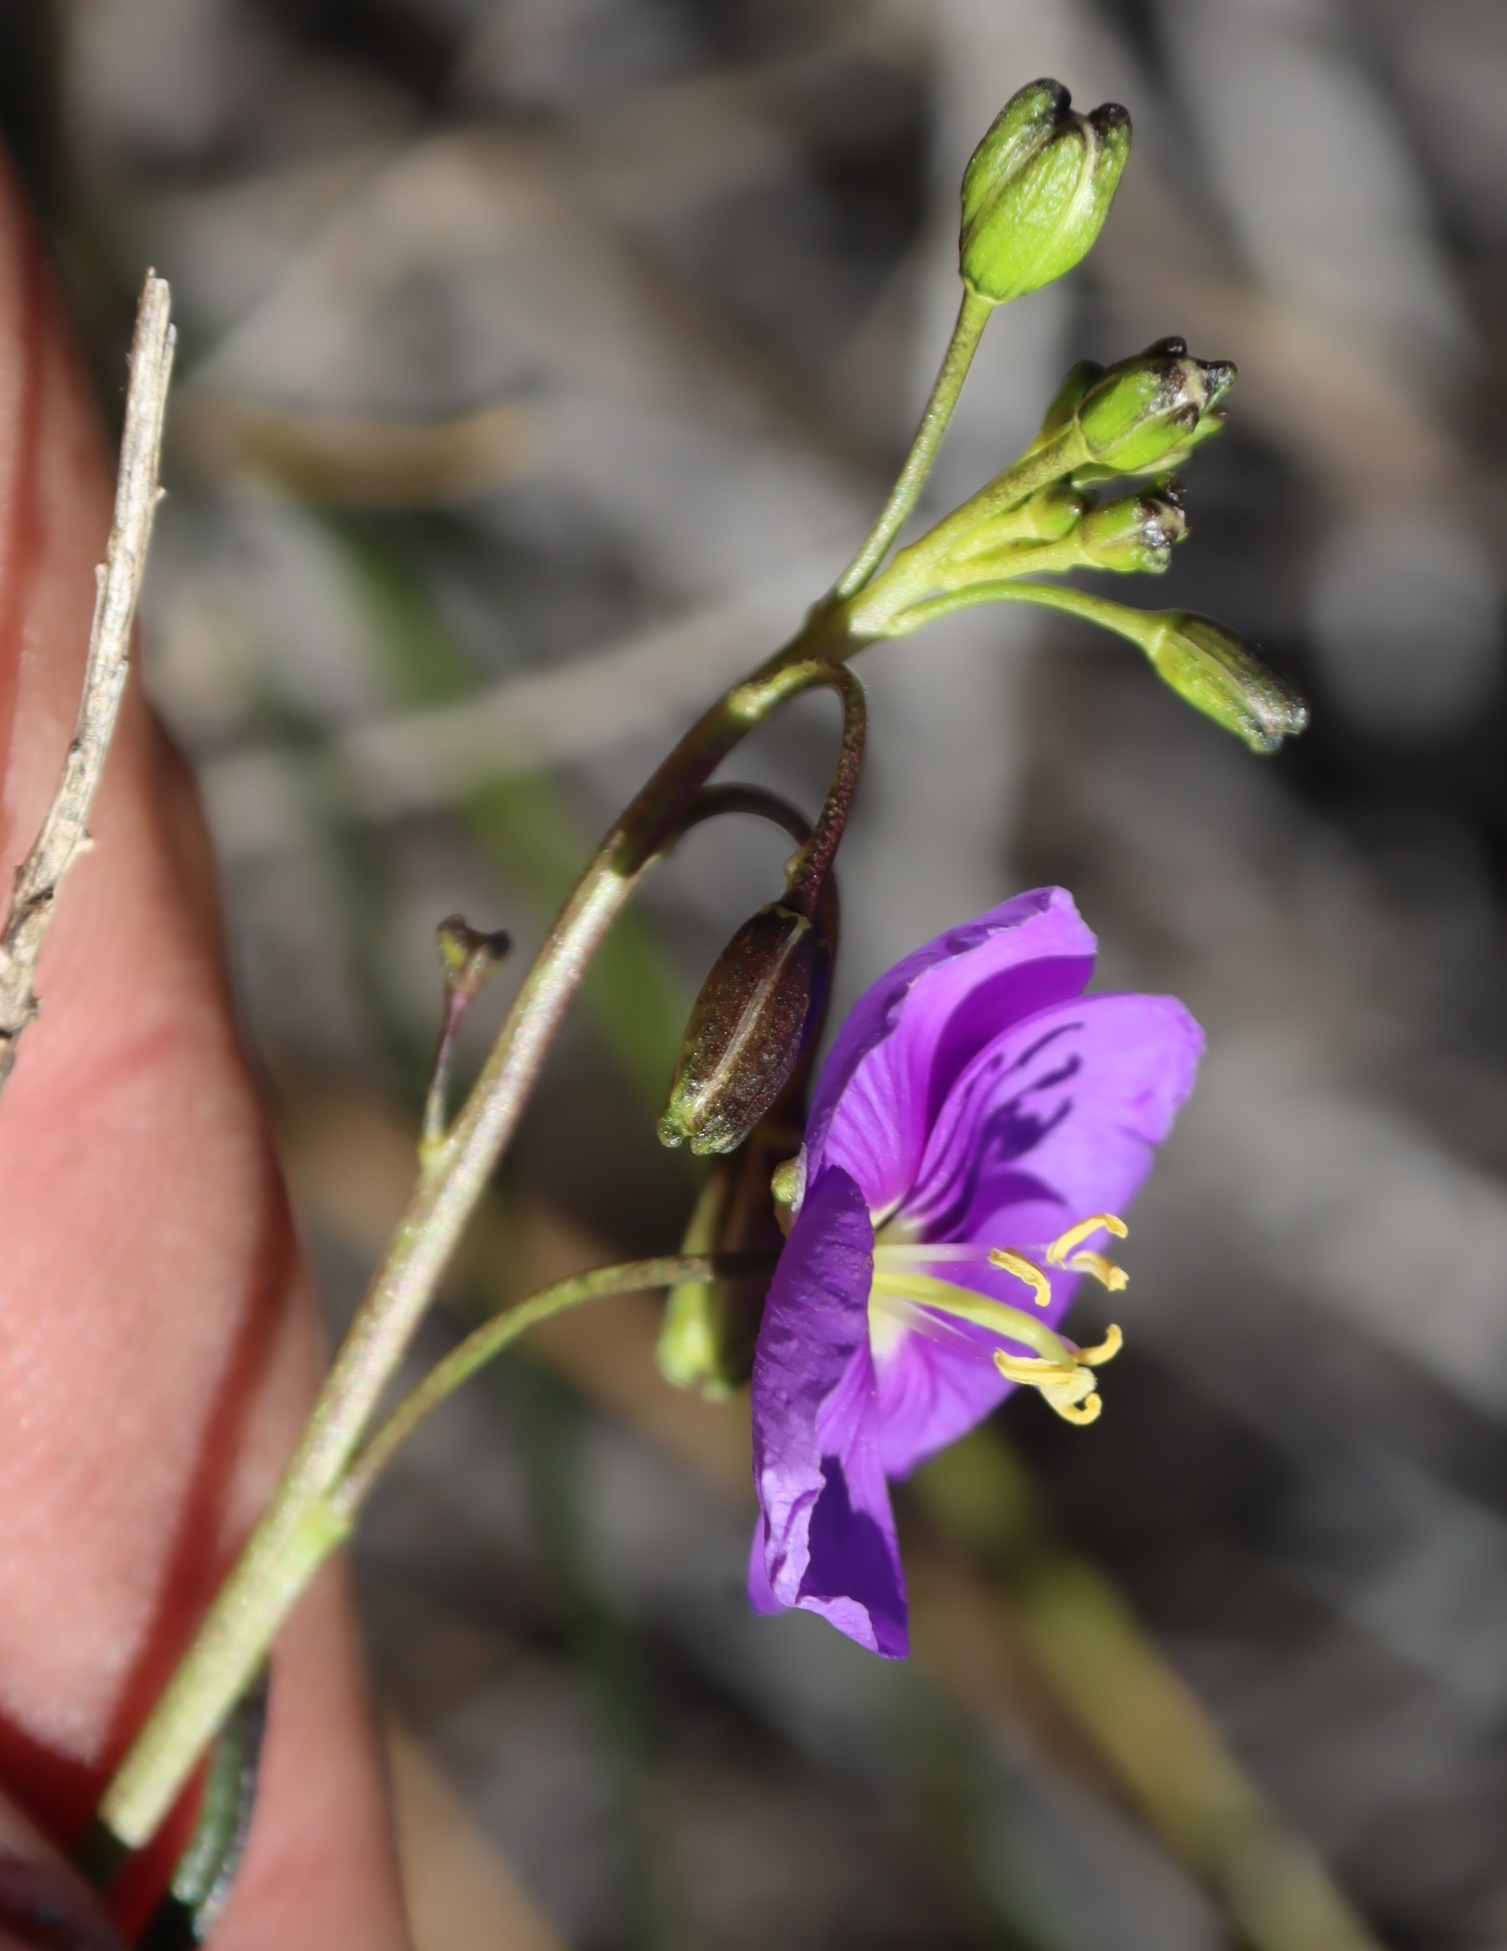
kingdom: Plantae
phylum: Tracheophyta
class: Magnoliopsida
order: Brassicales
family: Brassicaceae
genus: Heliophila
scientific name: Heliophila suavissima
